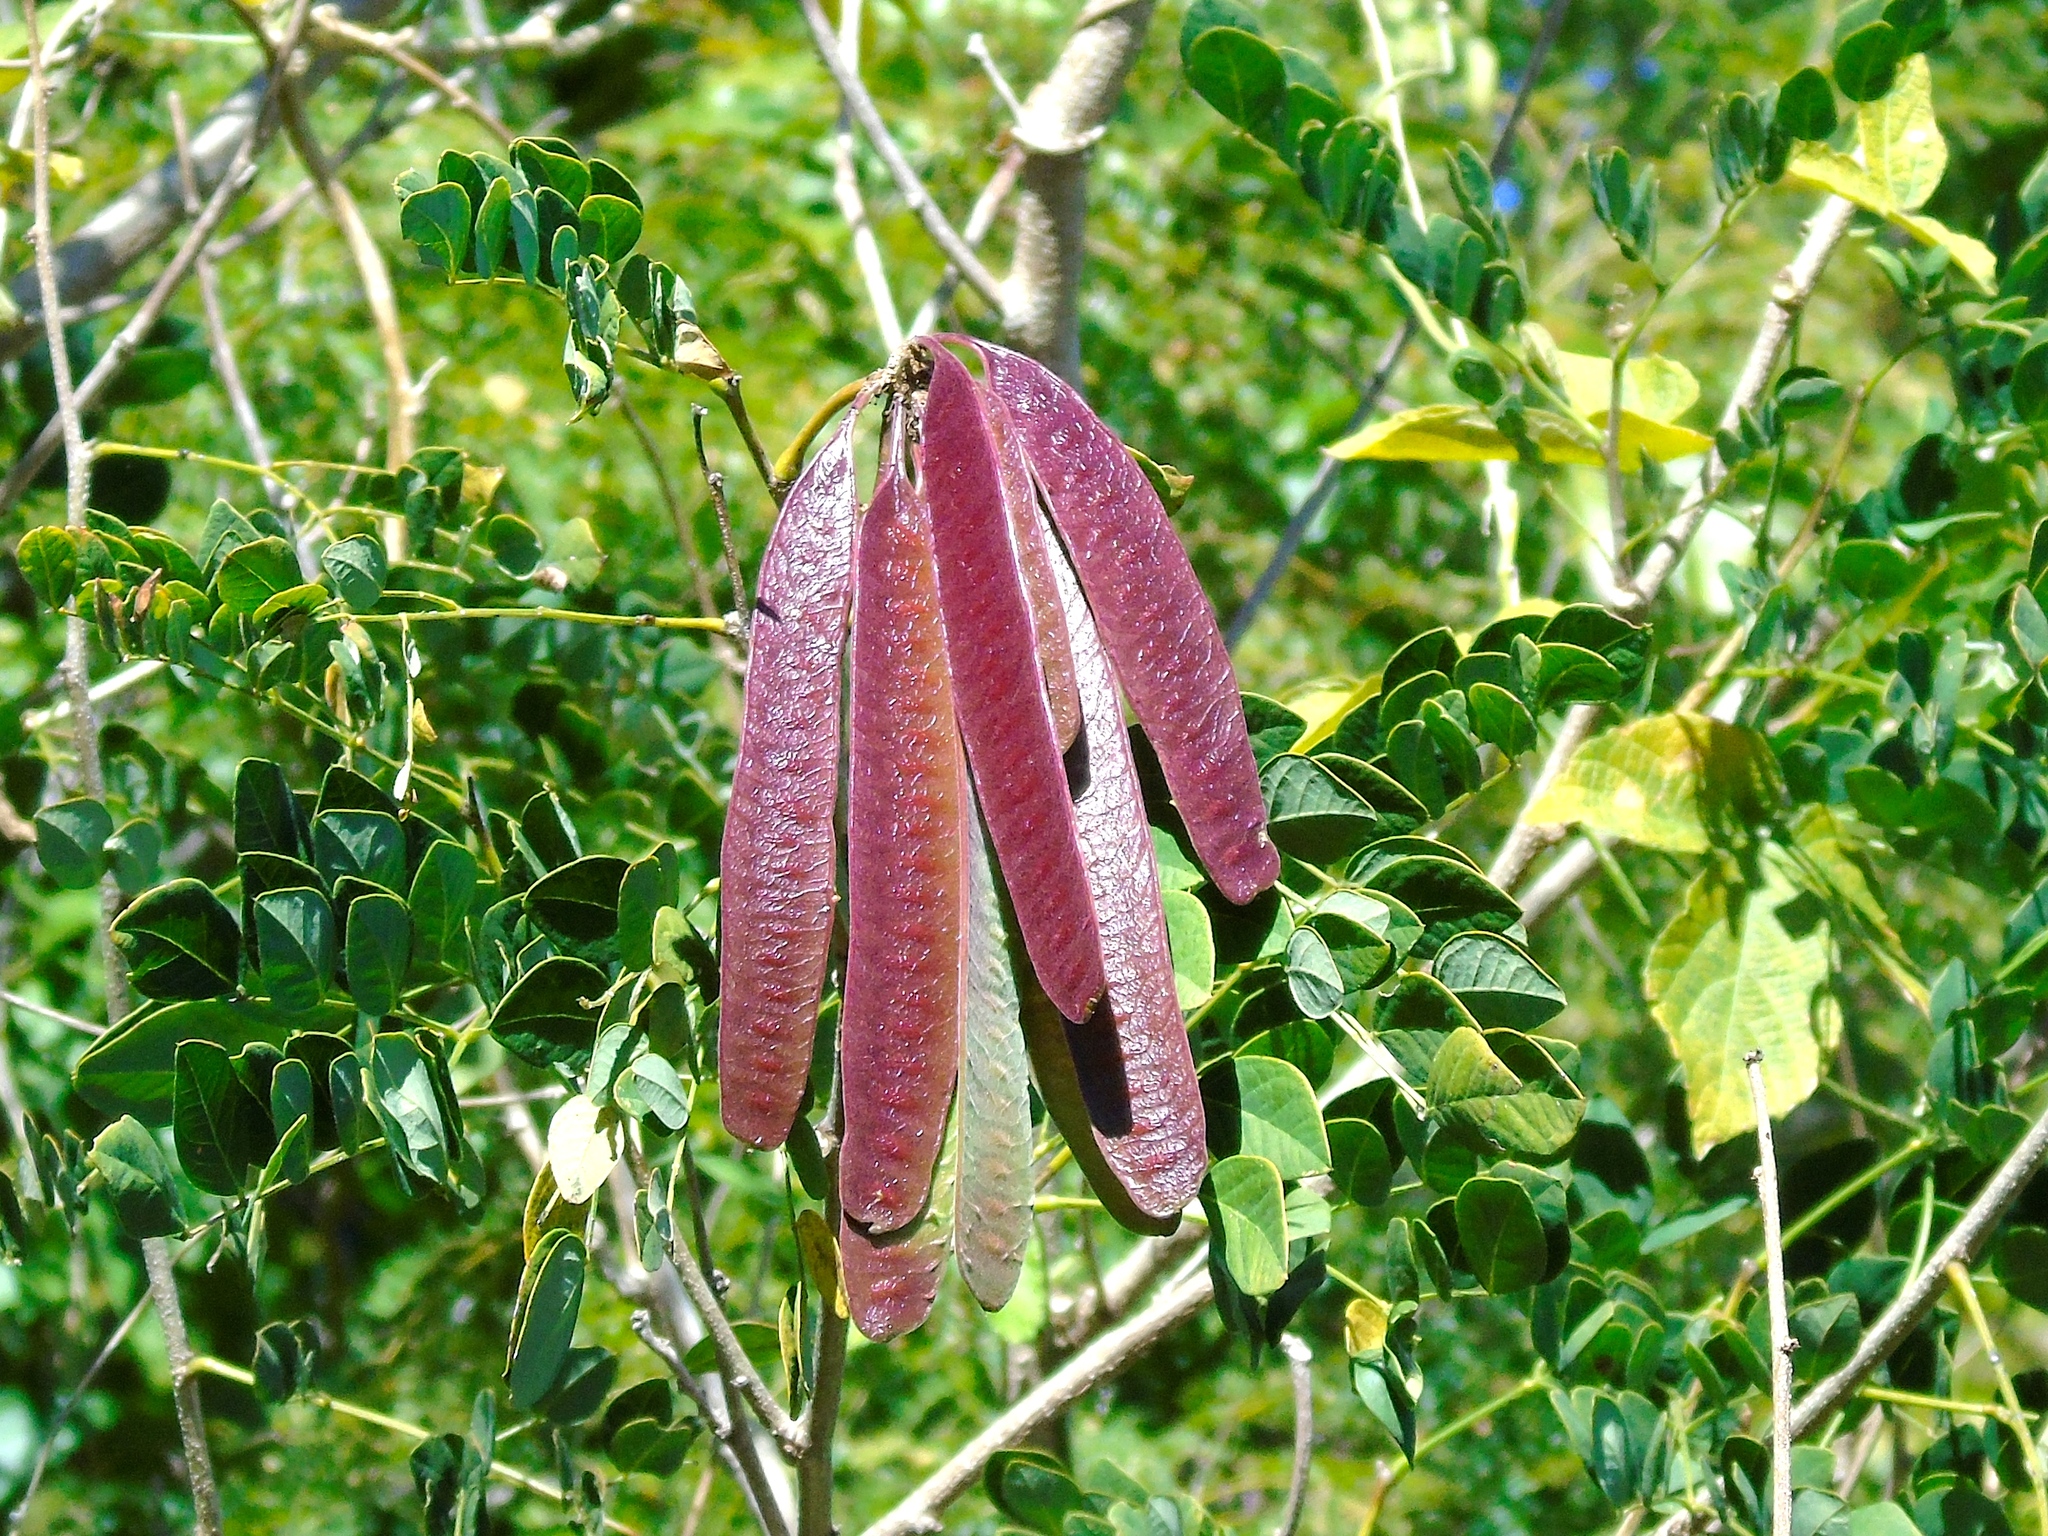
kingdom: Plantae
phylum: Tracheophyta
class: Magnoliopsida
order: Fabales
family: Fabaceae
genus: Leucaena
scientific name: Leucaena lanceolata
